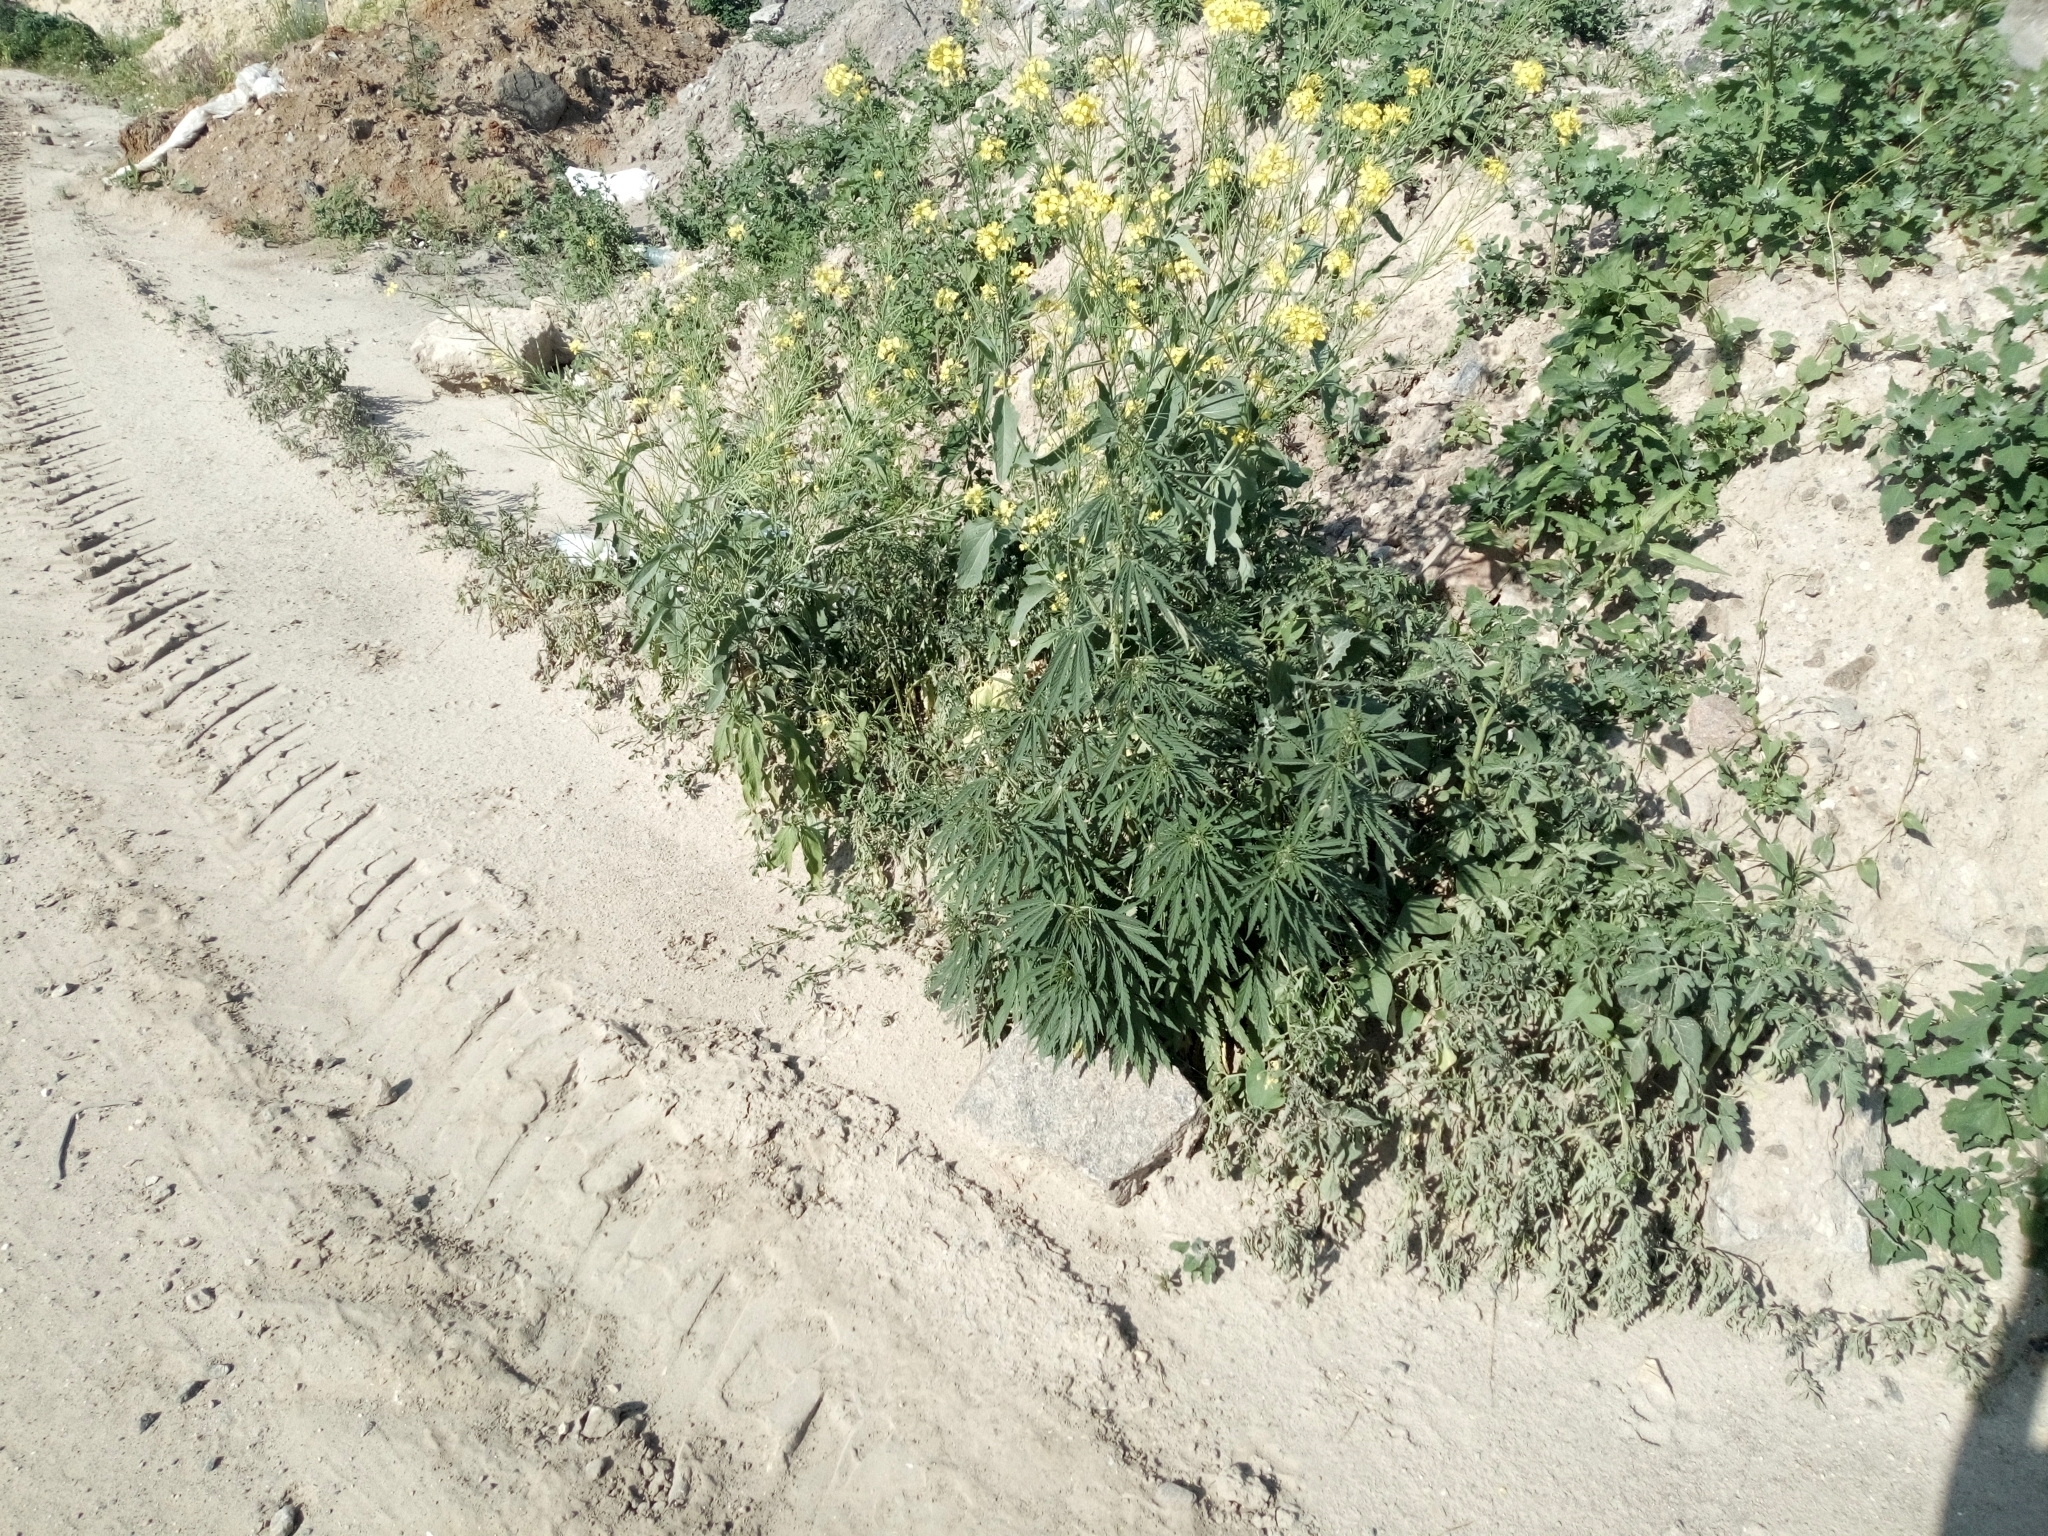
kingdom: Plantae
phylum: Tracheophyta
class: Magnoliopsida
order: Rosales
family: Cannabaceae
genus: Cannabis
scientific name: Cannabis sativa
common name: Hemp
